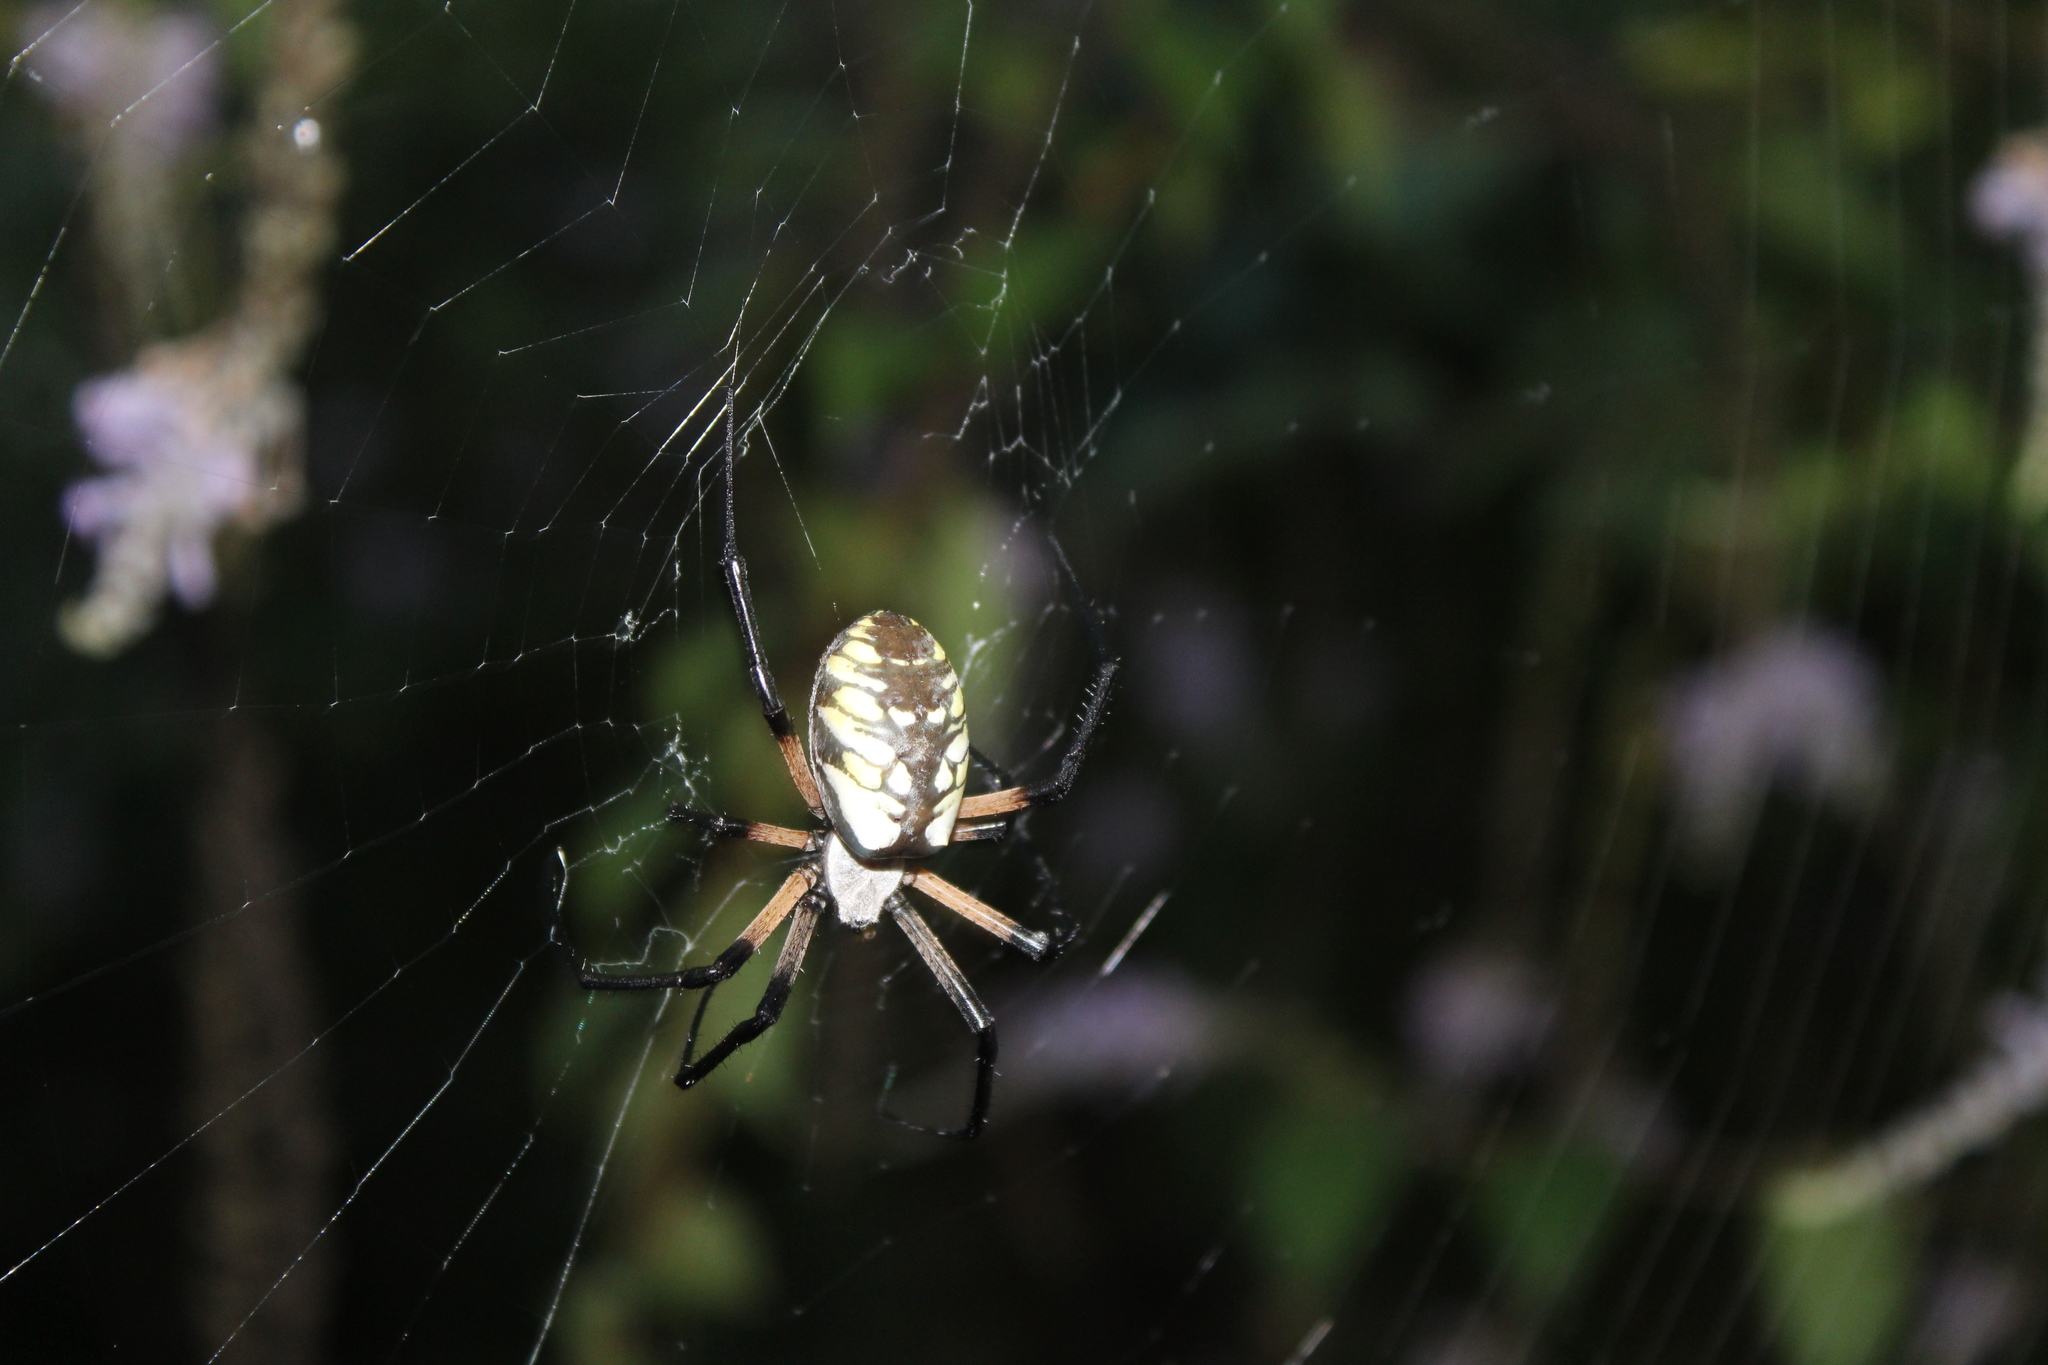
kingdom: Animalia
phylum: Arthropoda
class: Arachnida
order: Araneae
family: Araneidae
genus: Argiope
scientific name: Argiope aurantia
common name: Orb weavers
